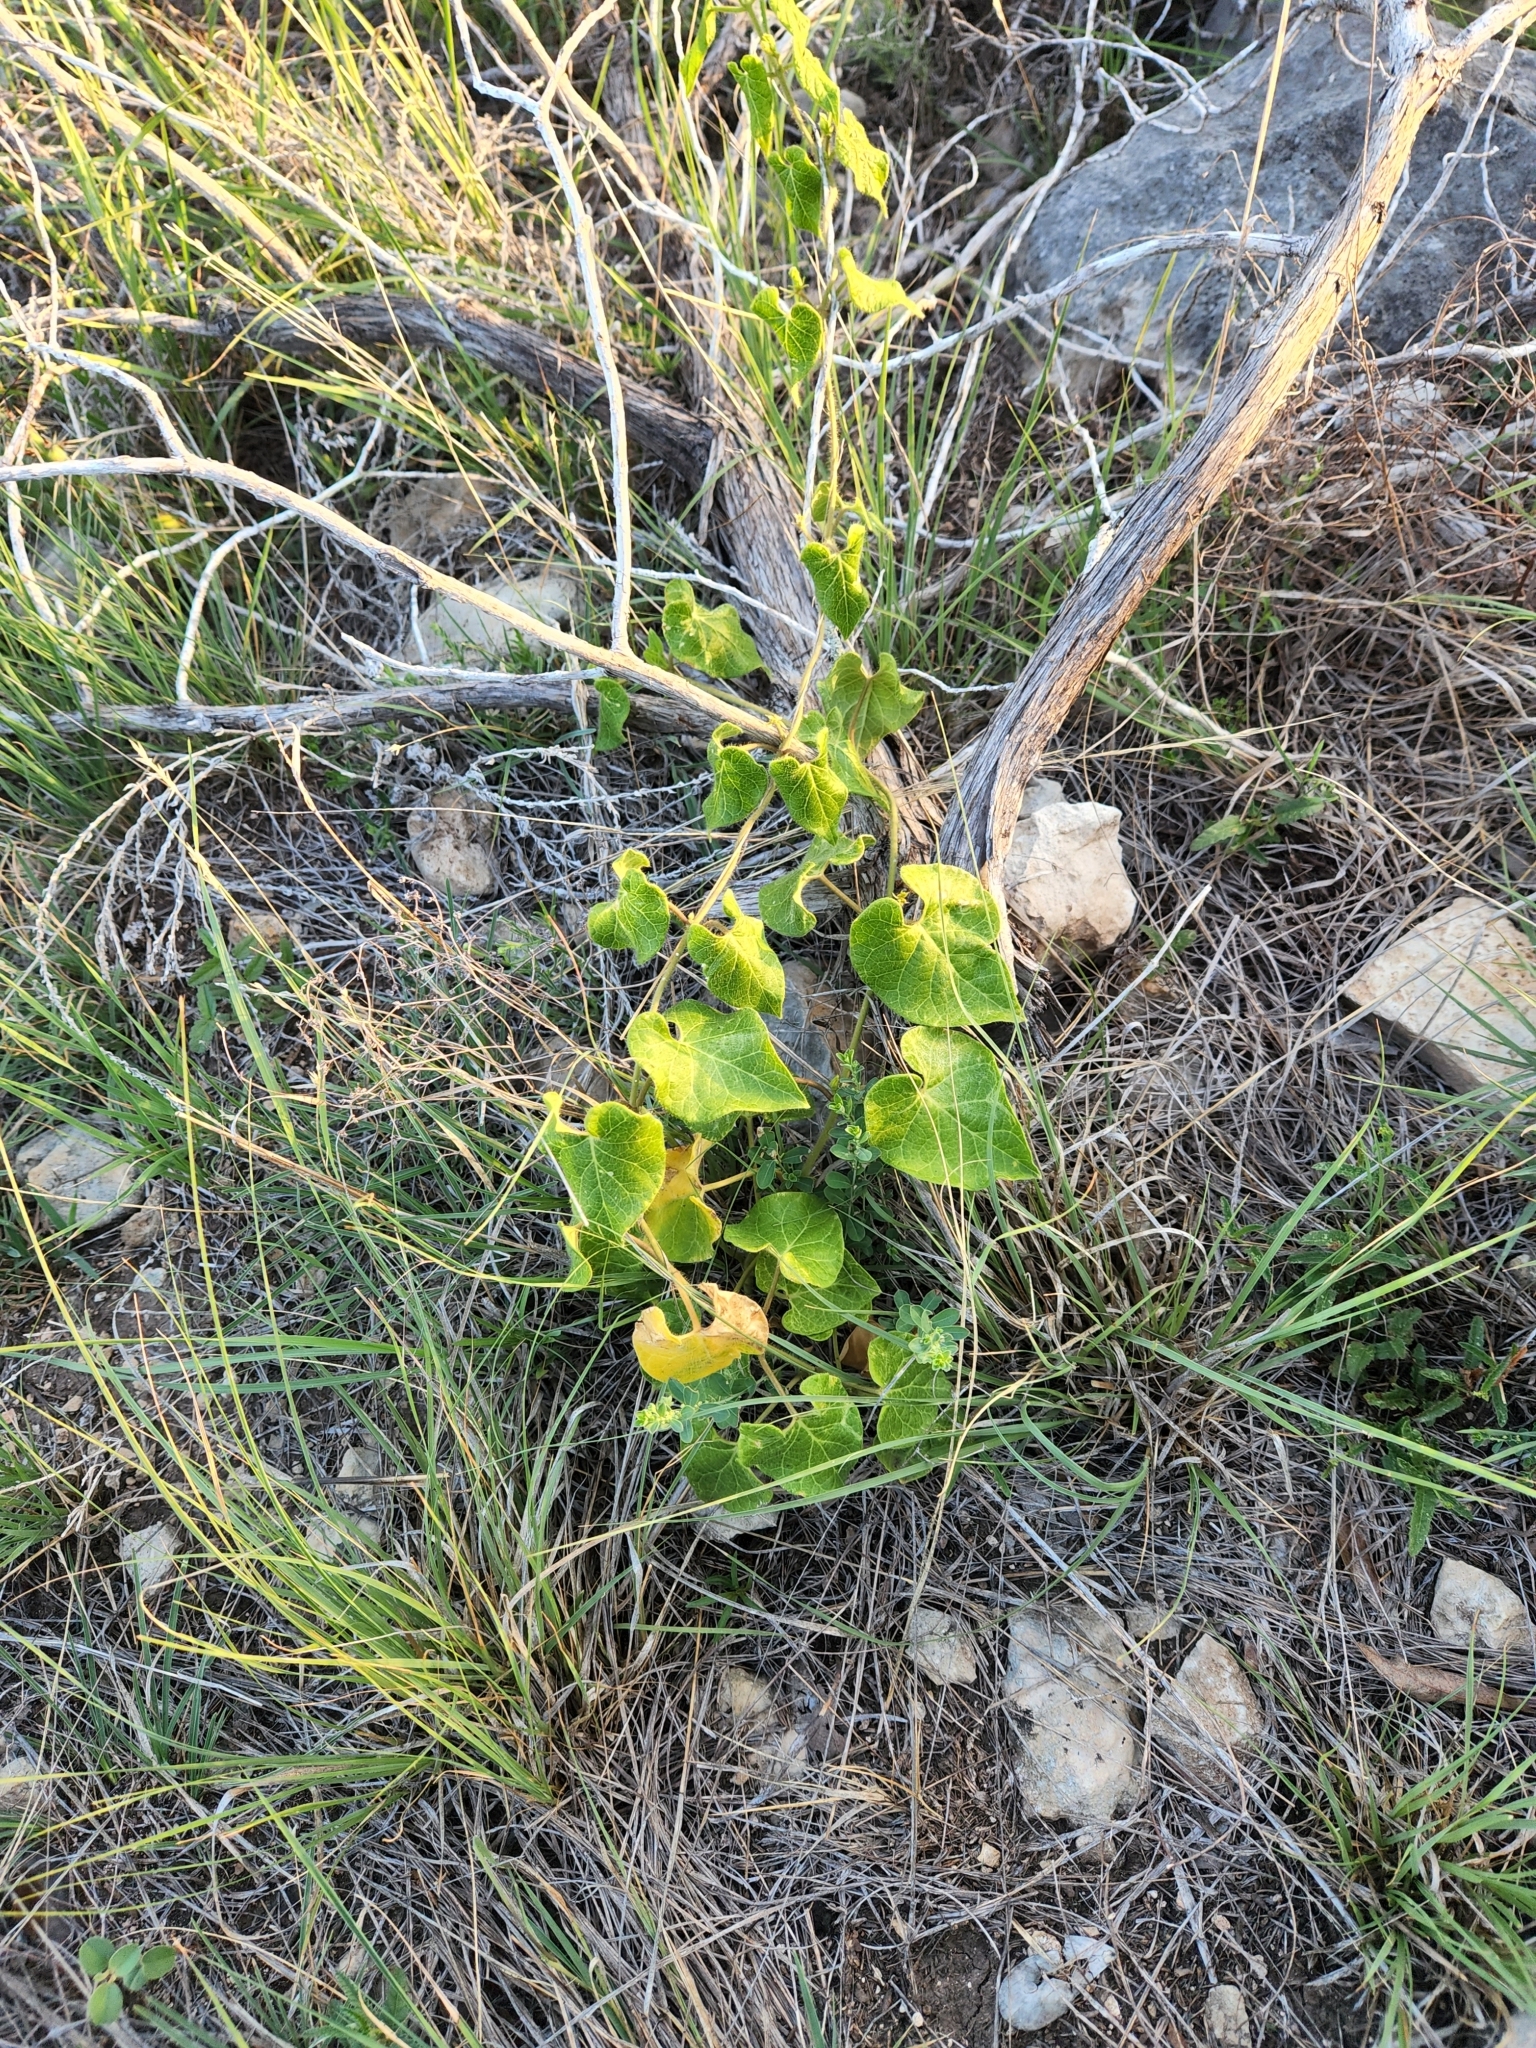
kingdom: Plantae
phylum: Tracheophyta
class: Magnoliopsida
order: Gentianales
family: Apocynaceae
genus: Dictyanthus
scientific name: Dictyanthus reticulatus
